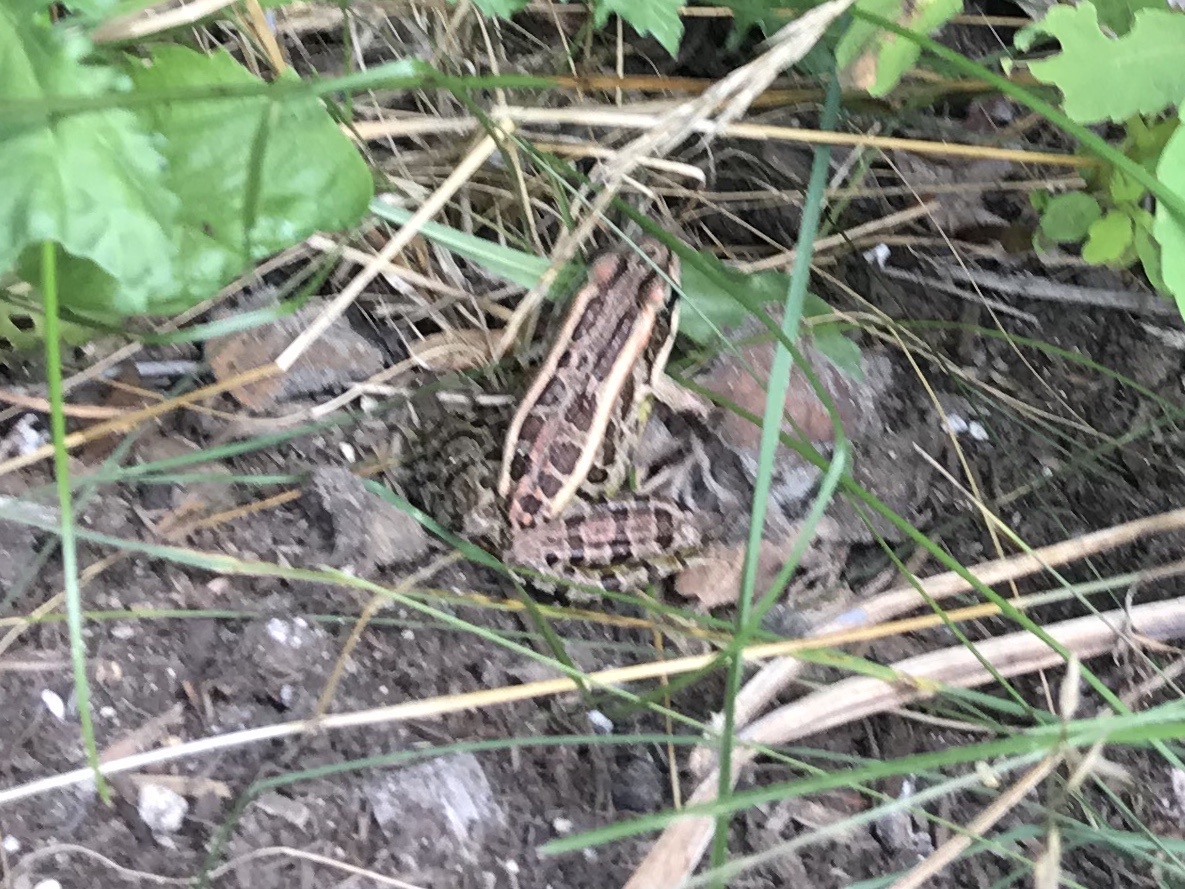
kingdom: Animalia
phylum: Chordata
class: Amphibia
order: Anura
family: Ranidae
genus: Lithobates
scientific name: Lithobates palustris
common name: Pickerel frog
